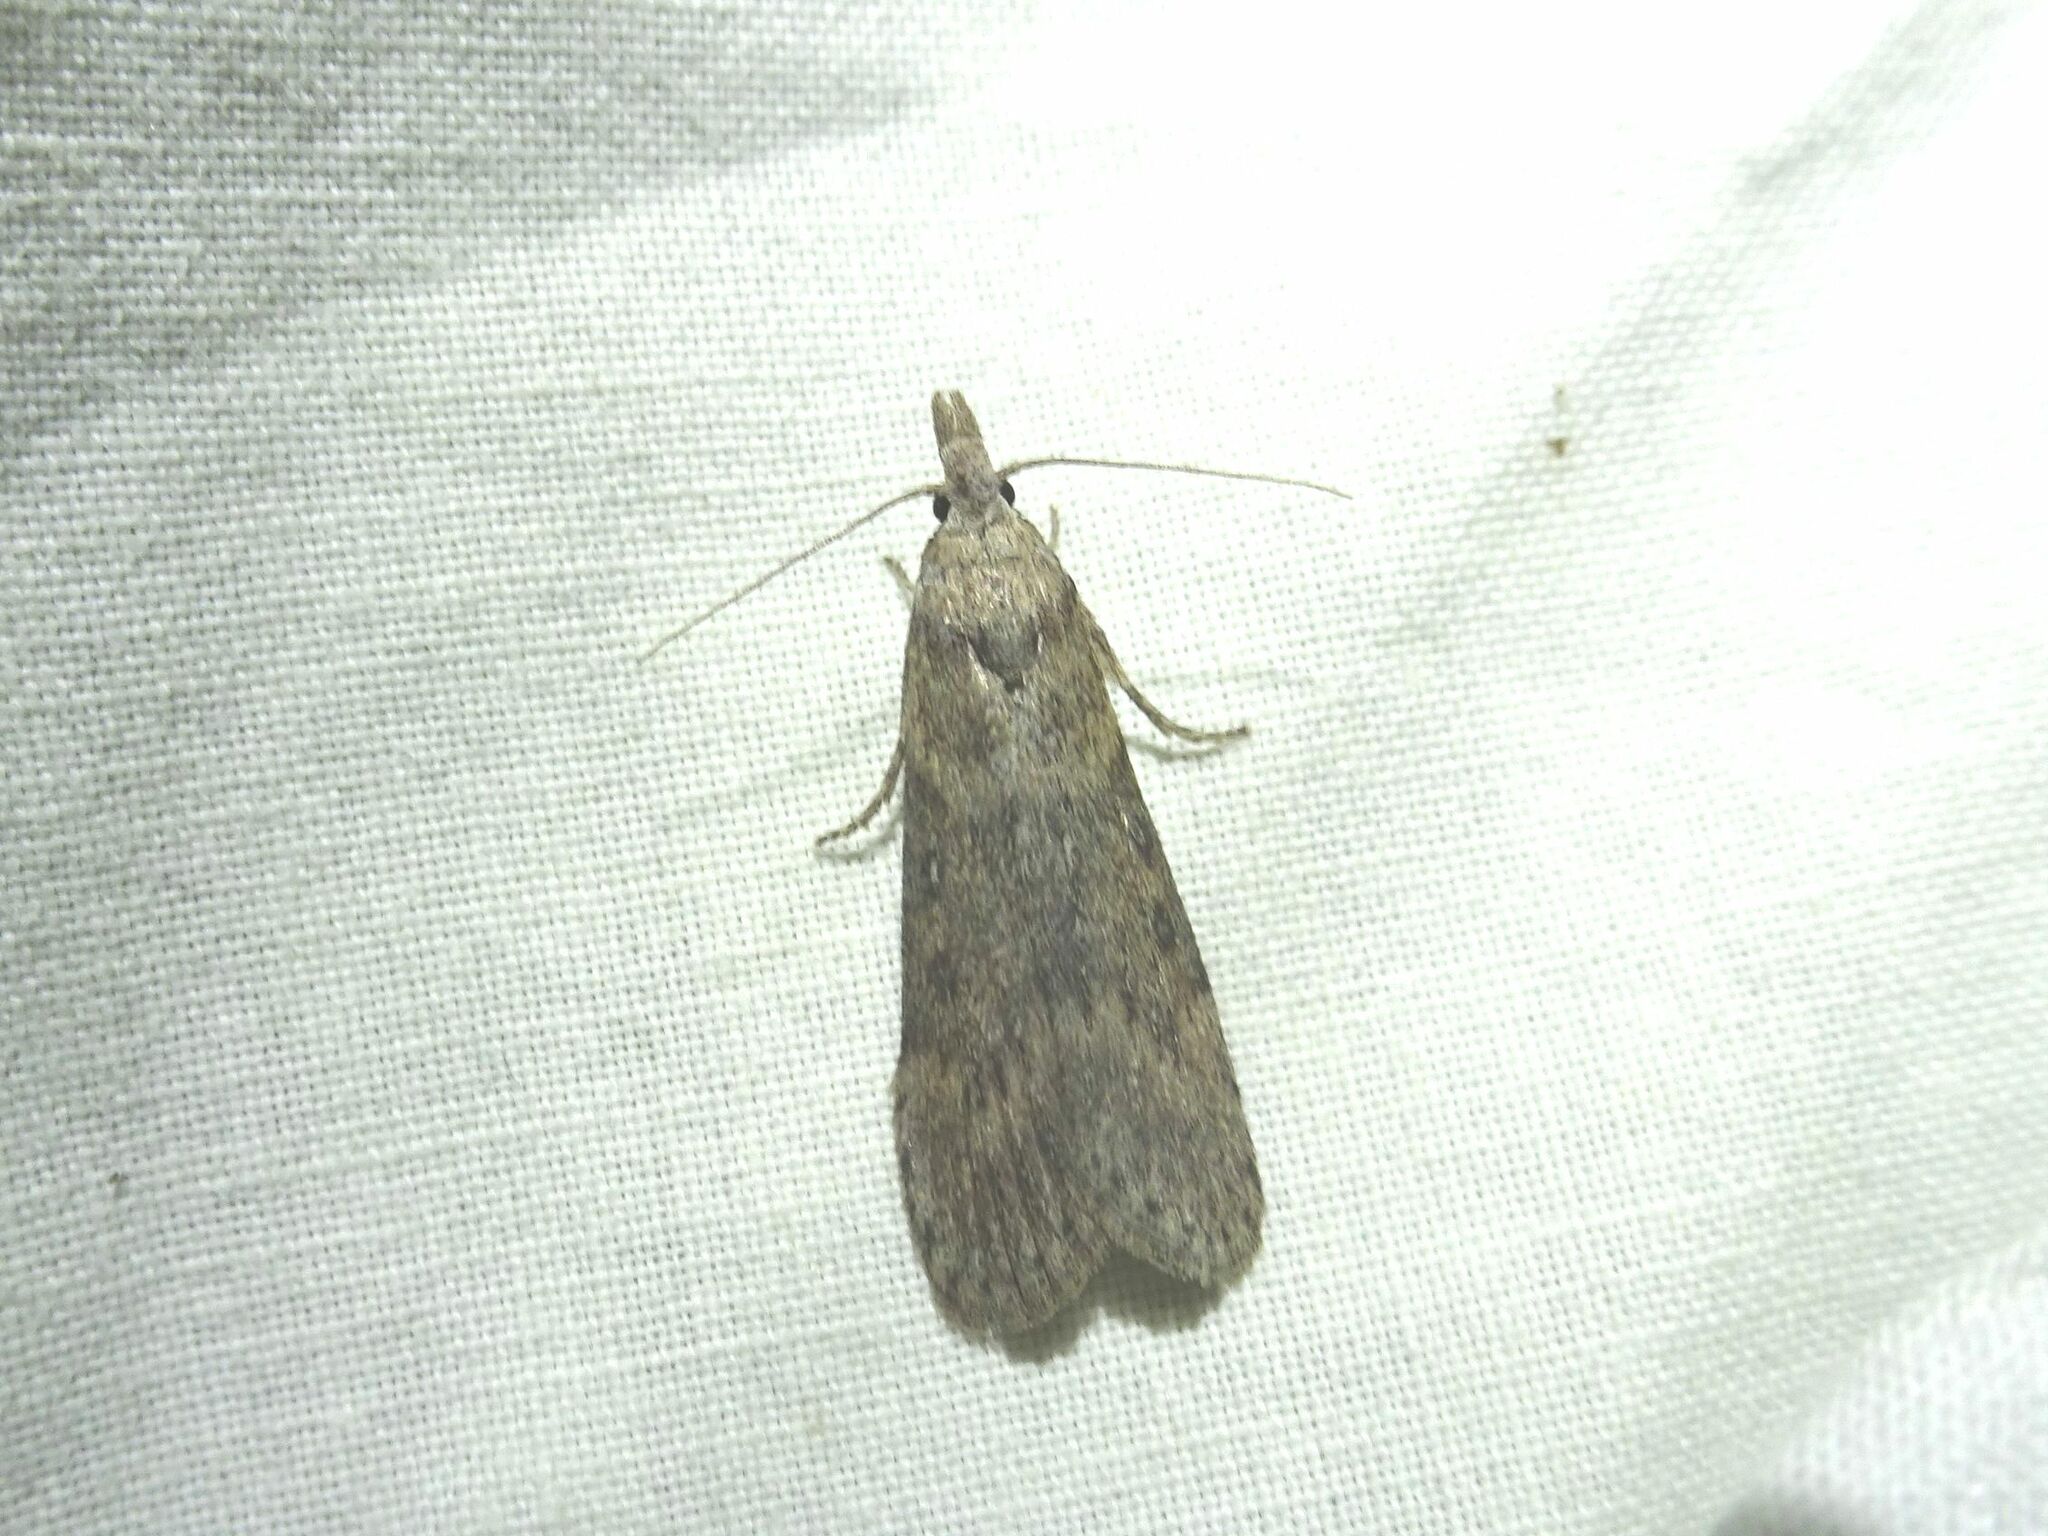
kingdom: Animalia
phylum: Arthropoda
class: Insecta
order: Lepidoptera
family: Pyralidae
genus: Lamoria
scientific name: Lamoria anella
